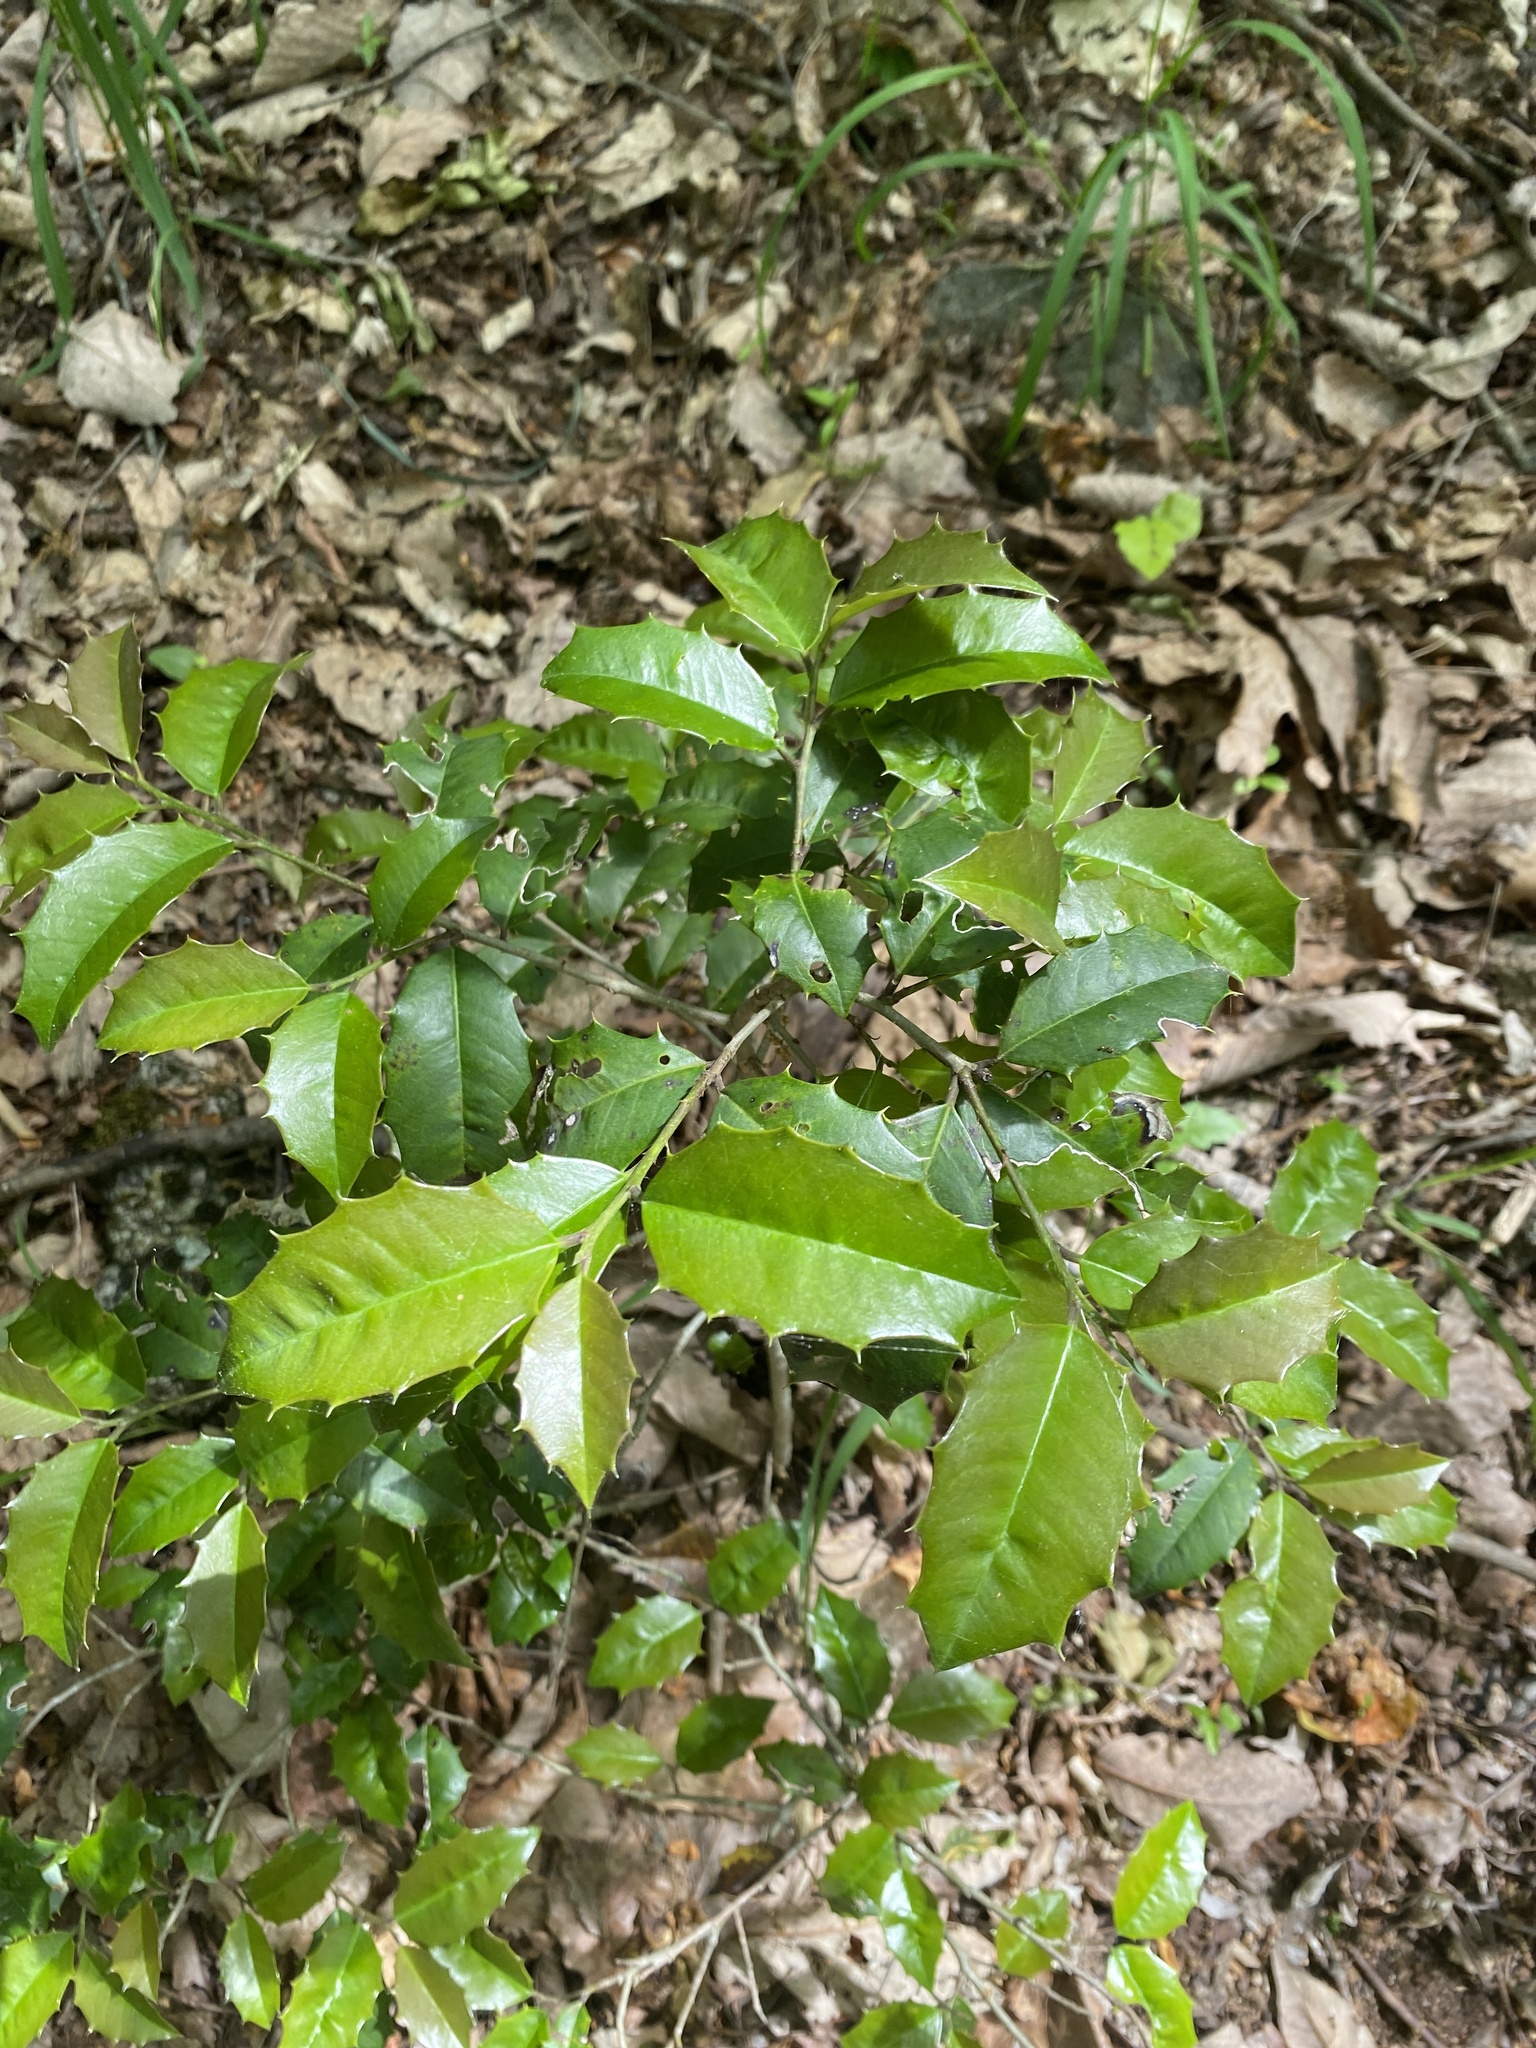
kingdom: Plantae
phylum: Tracheophyta
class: Magnoliopsida
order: Aquifoliales
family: Aquifoliaceae
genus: Ilex
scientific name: Ilex opaca
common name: American holly
